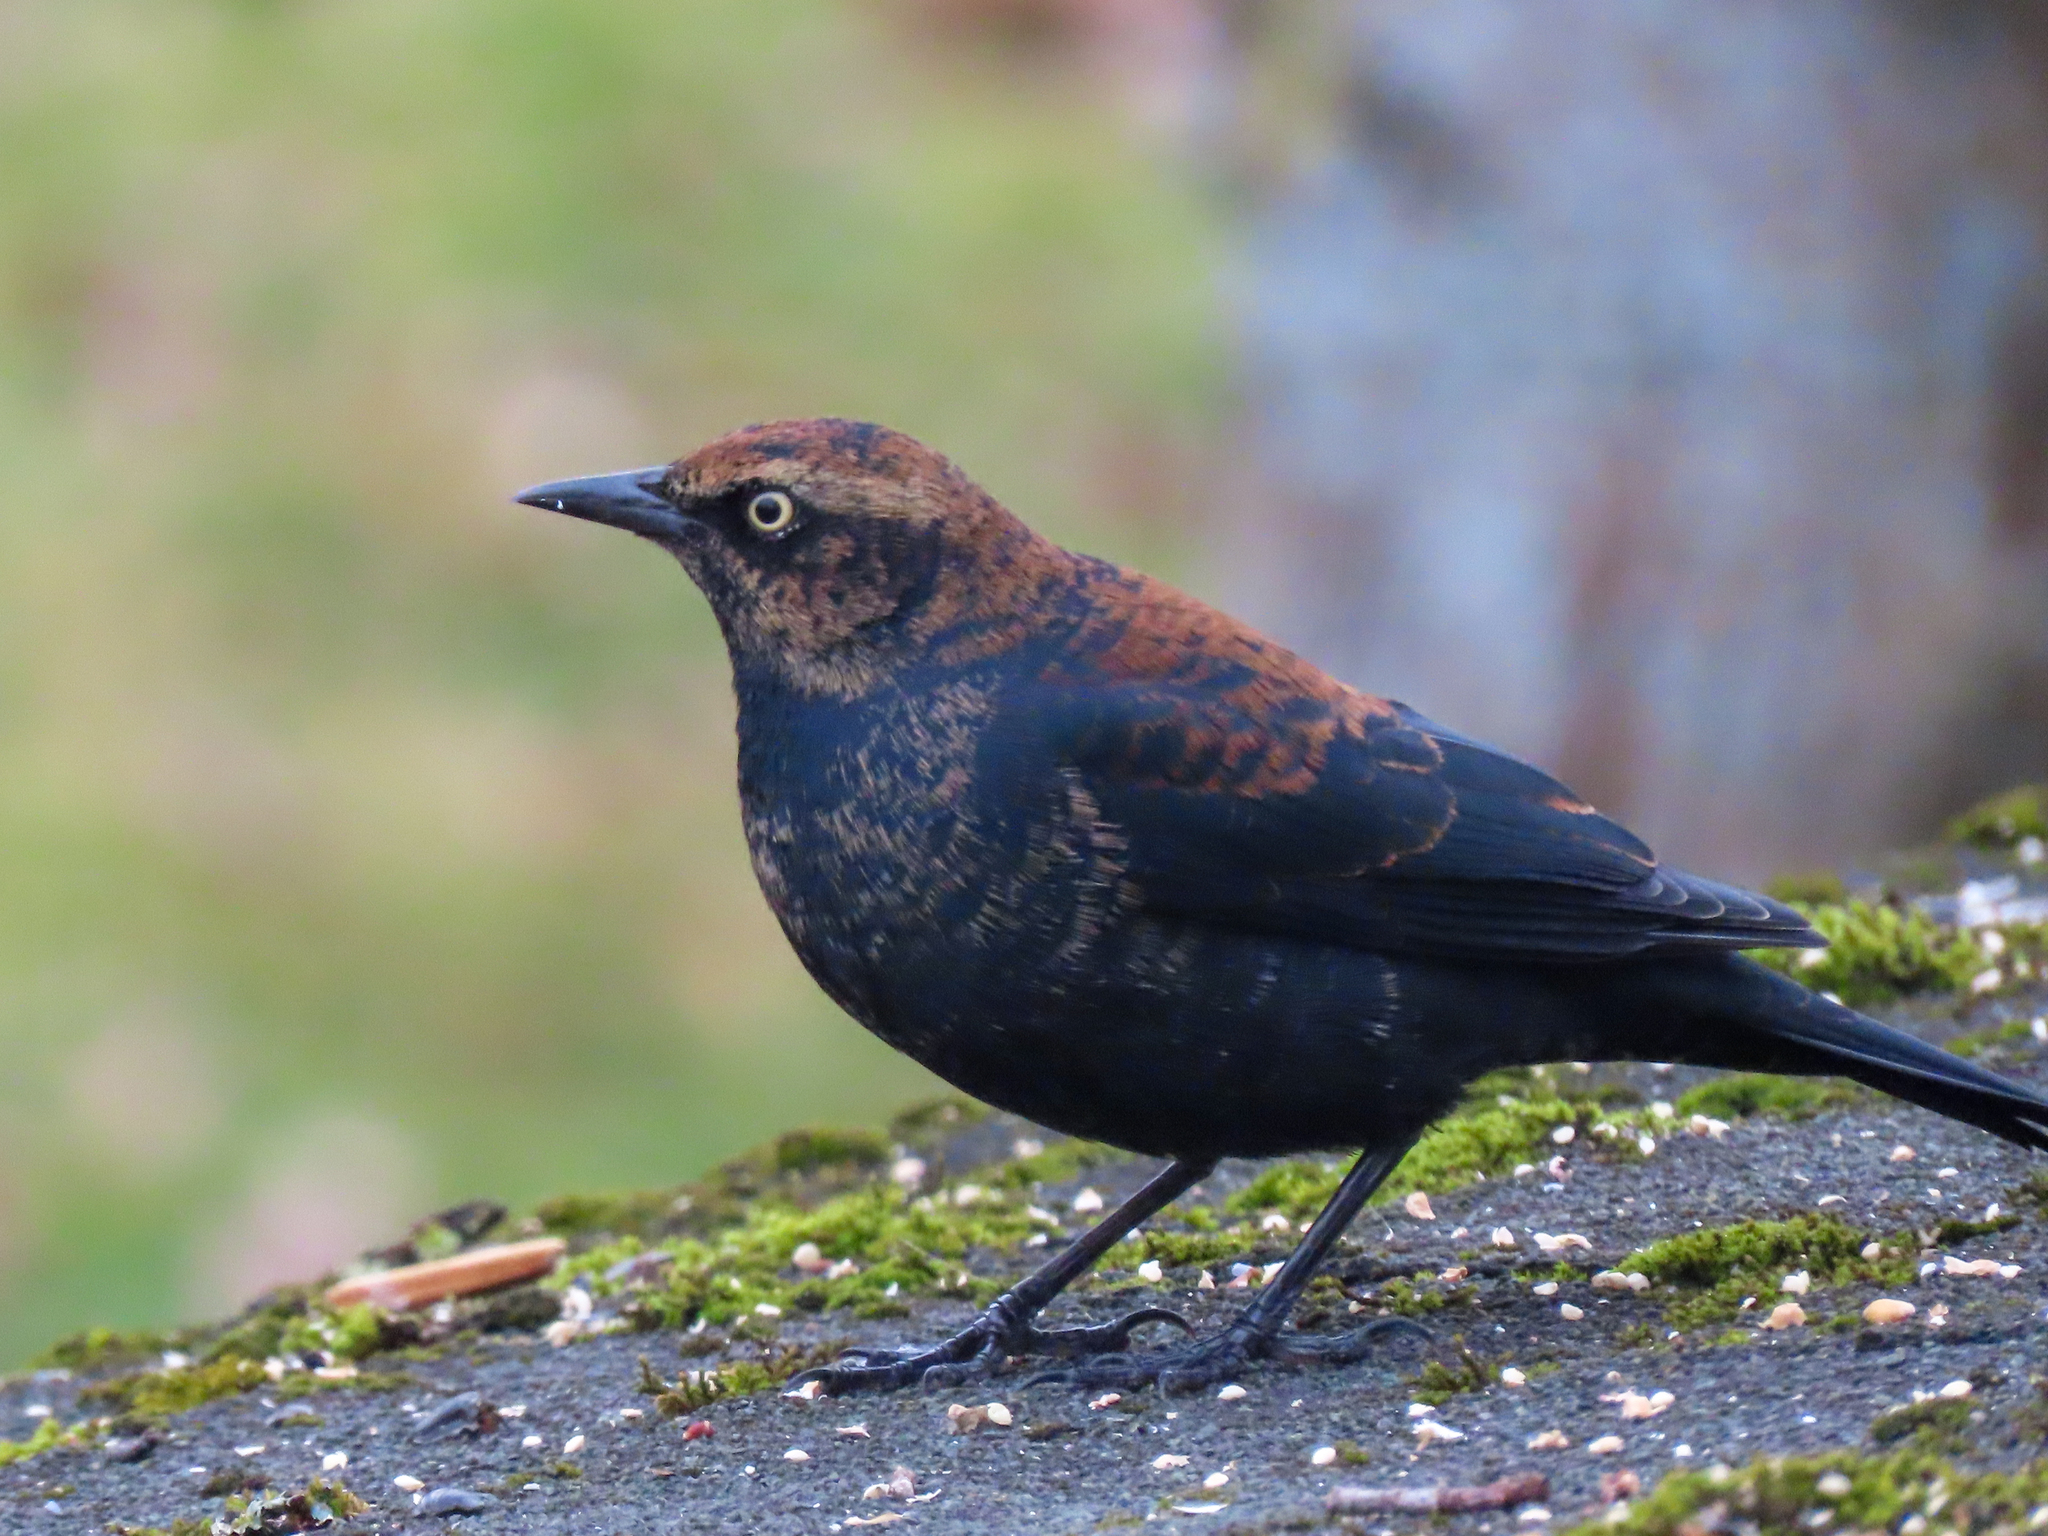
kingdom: Animalia
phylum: Chordata
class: Aves
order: Passeriformes
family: Icteridae
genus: Euphagus
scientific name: Euphagus carolinus
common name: Rusty blackbird
